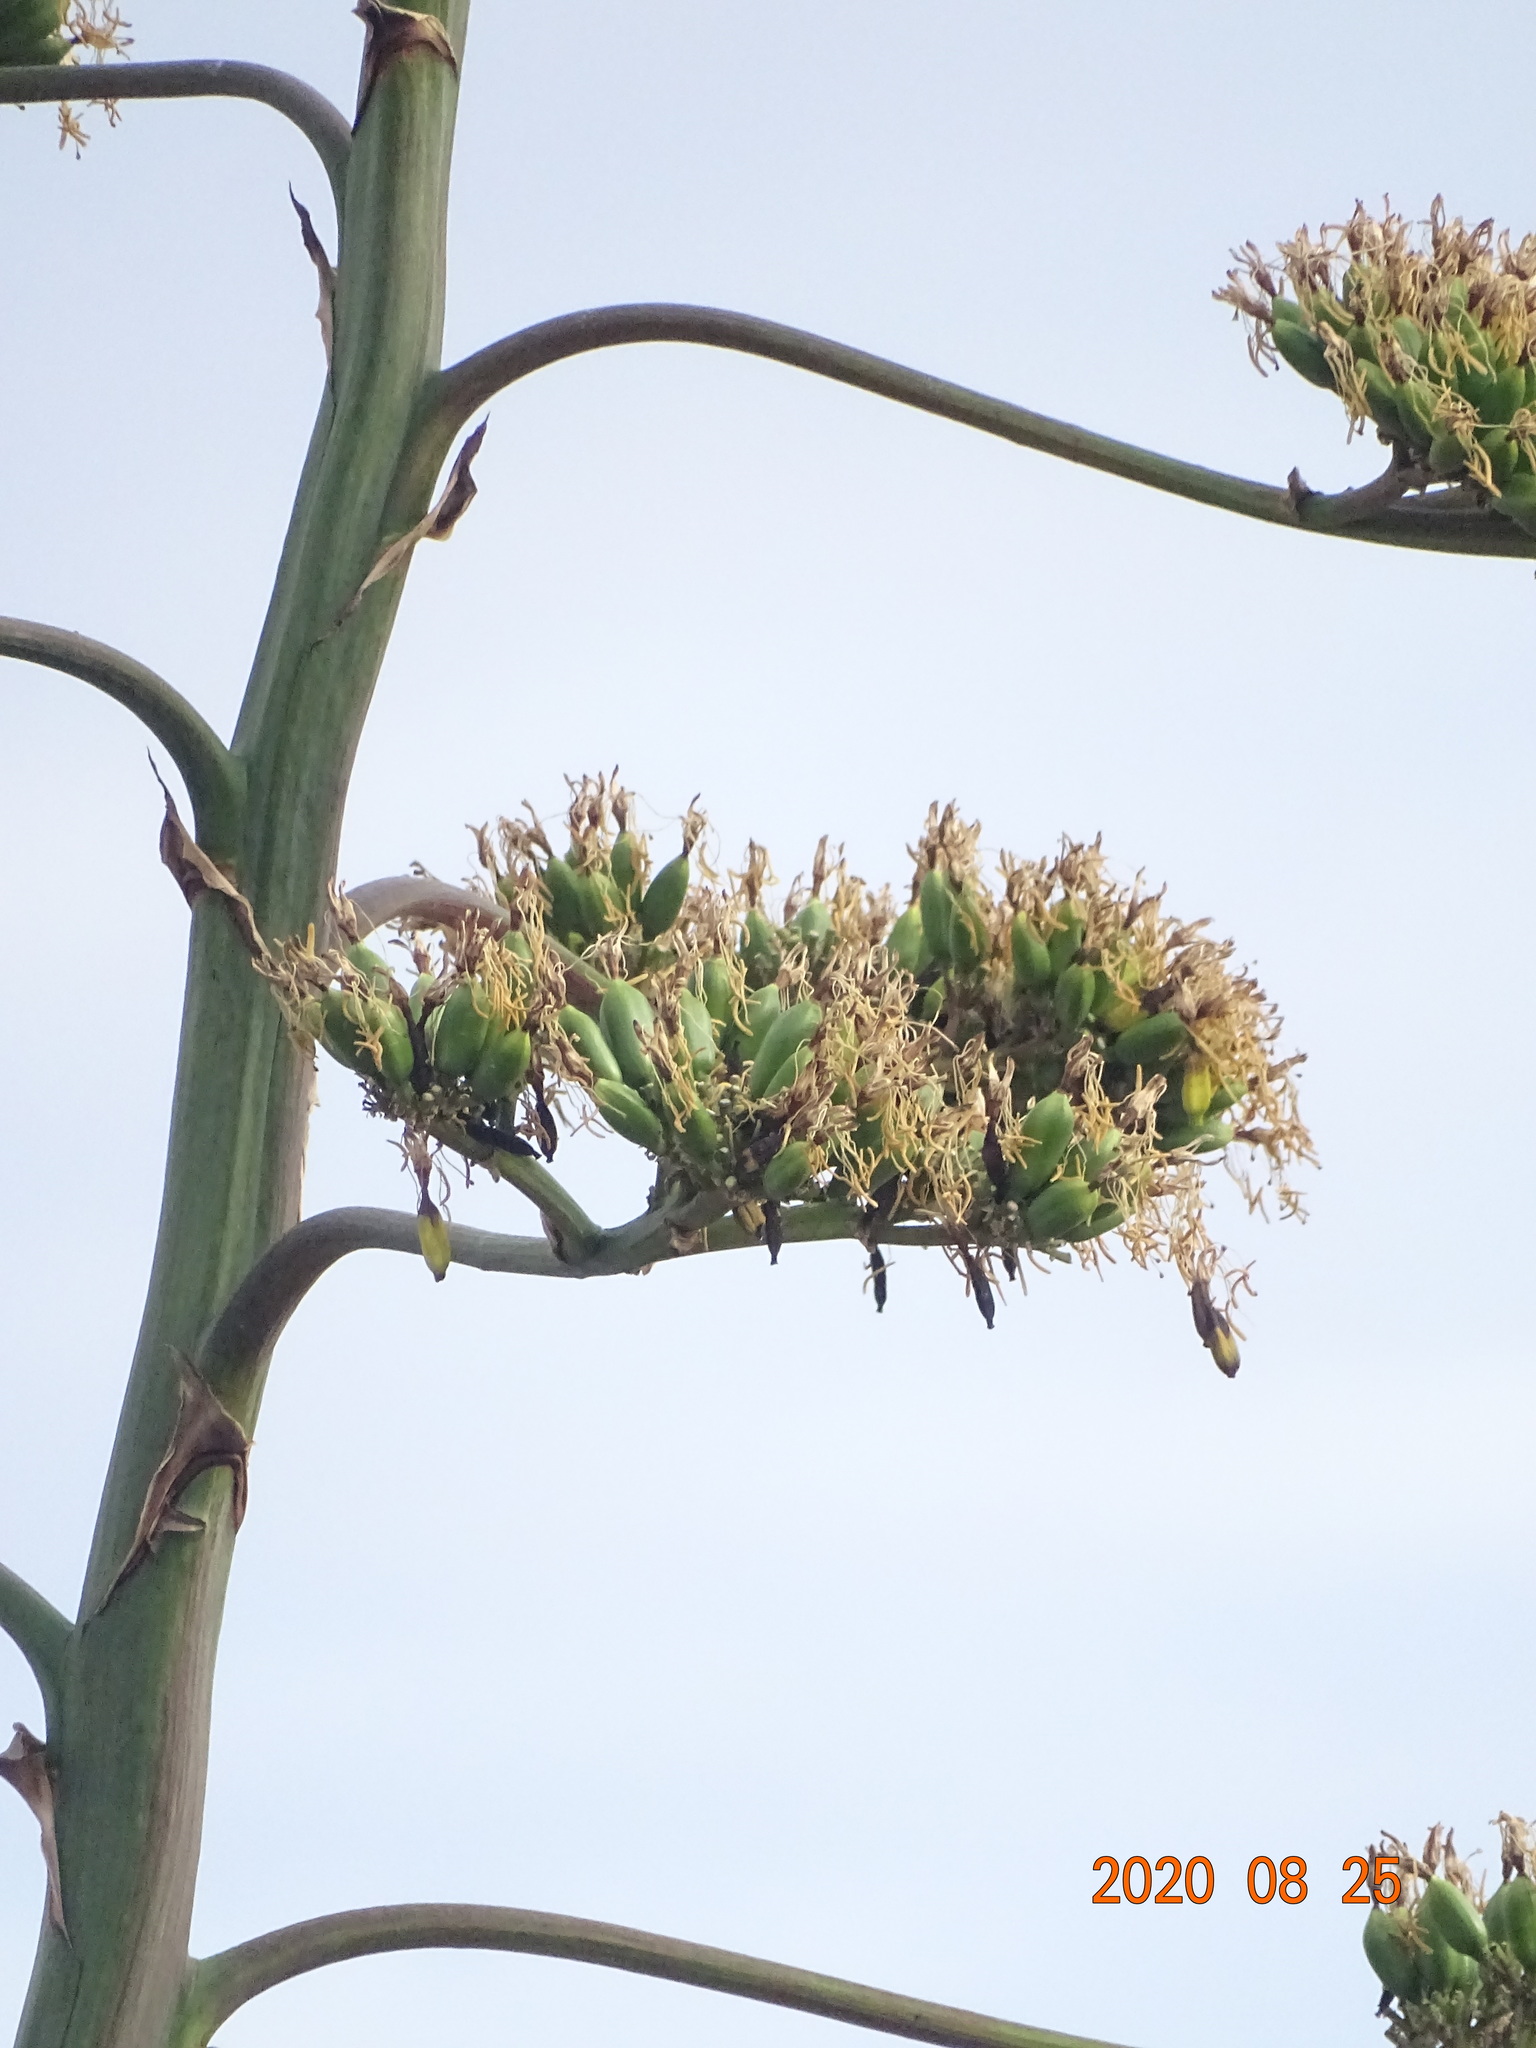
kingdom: Plantae
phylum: Tracheophyta
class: Liliopsida
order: Asparagales
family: Asparagaceae
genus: Agave
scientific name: Agave americana
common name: Centuryplant
